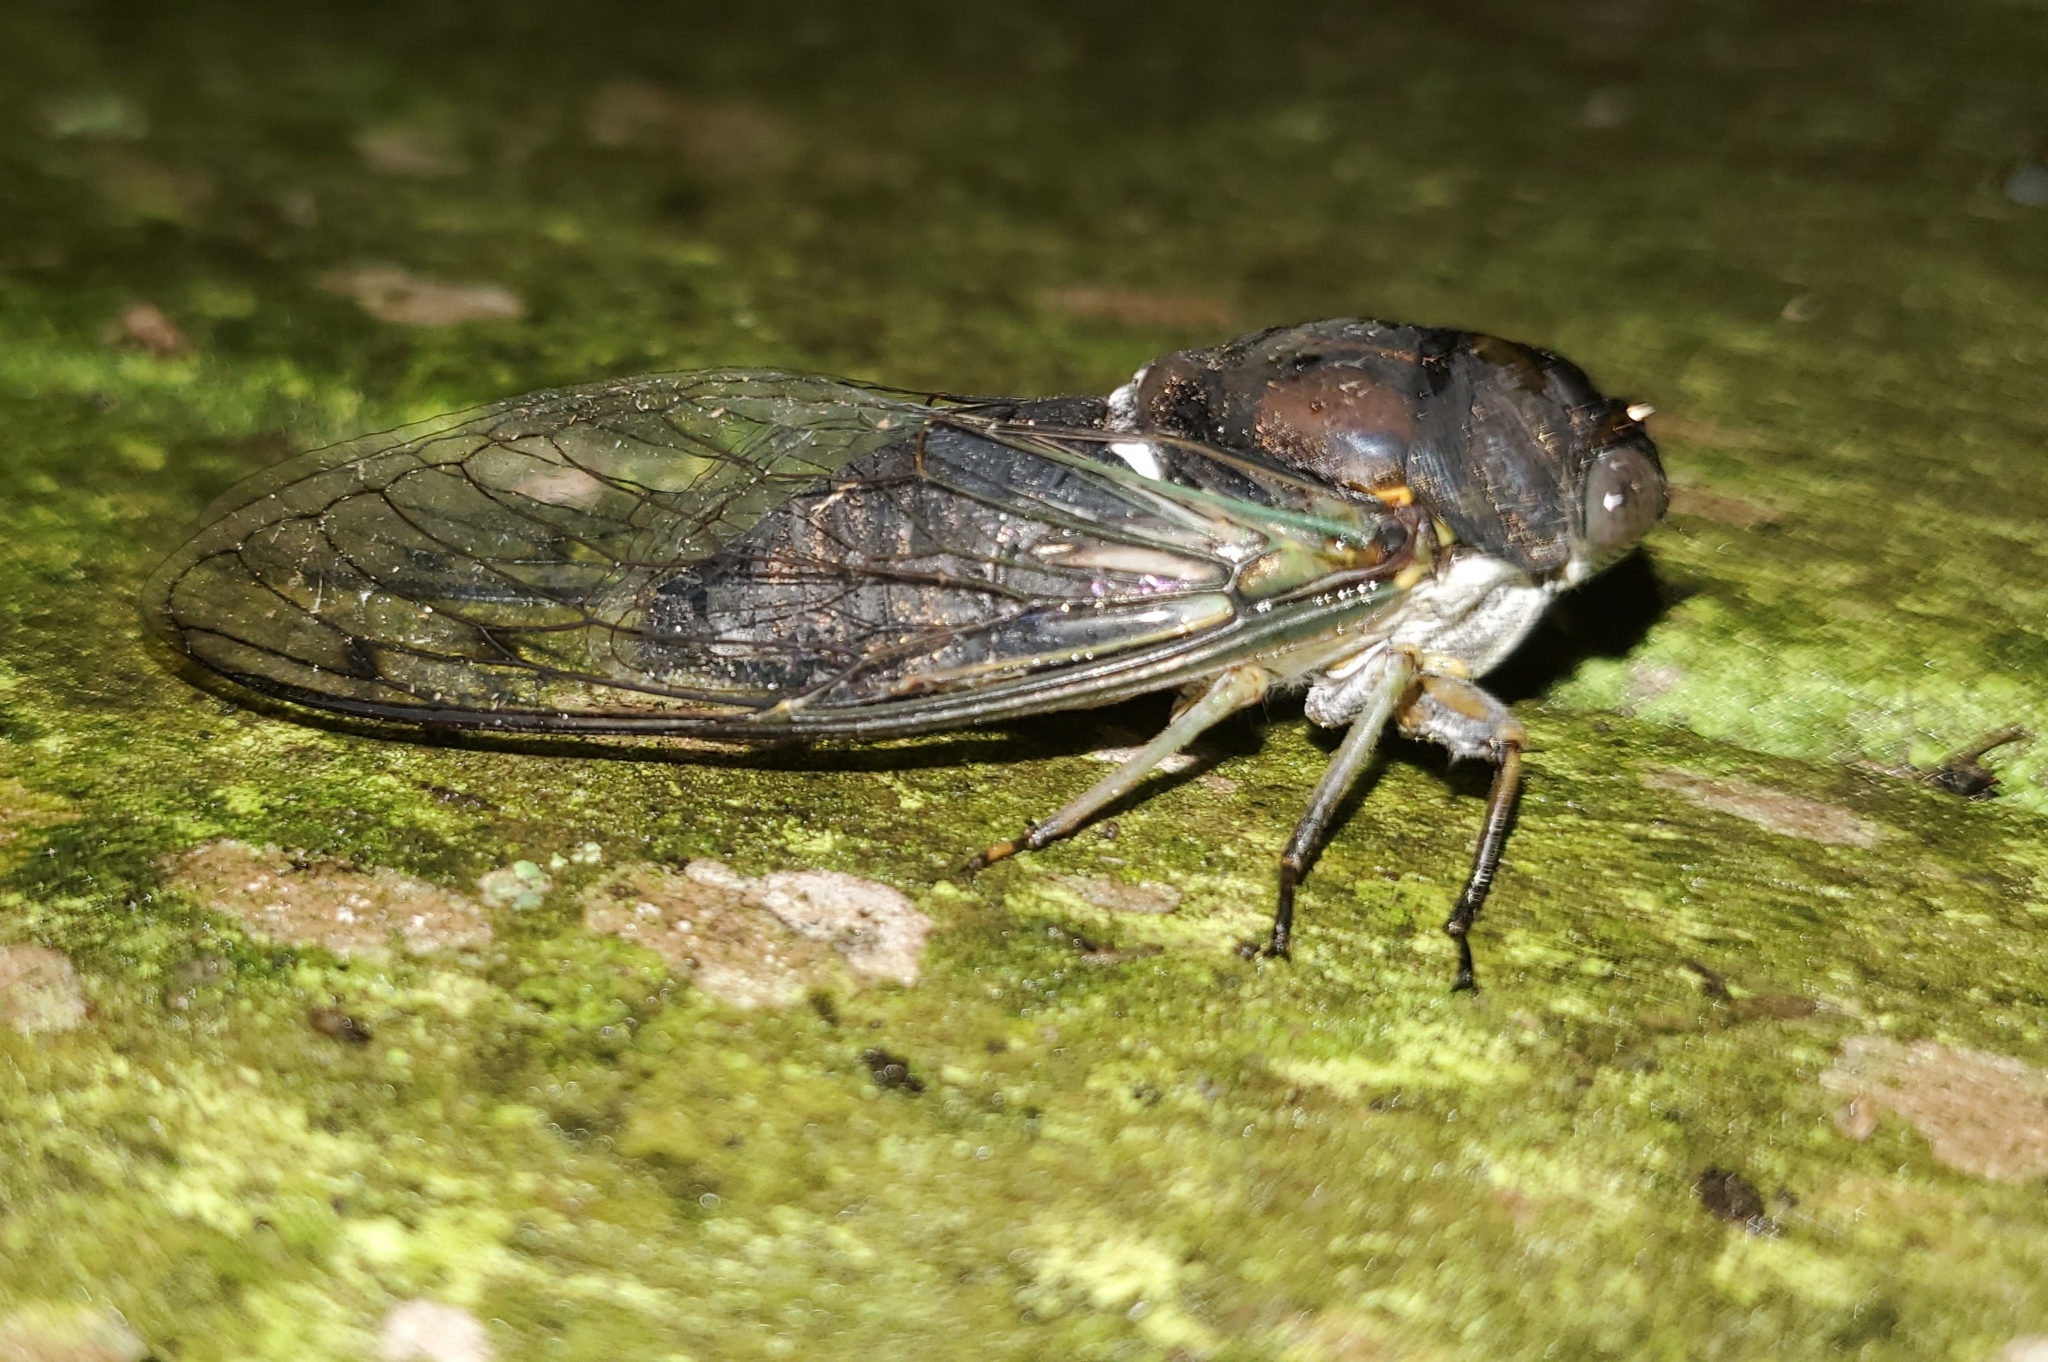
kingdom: Animalia
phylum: Arthropoda
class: Insecta
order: Hemiptera
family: Cicadidae
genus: Neotibicen
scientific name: Neotibicen similaris
